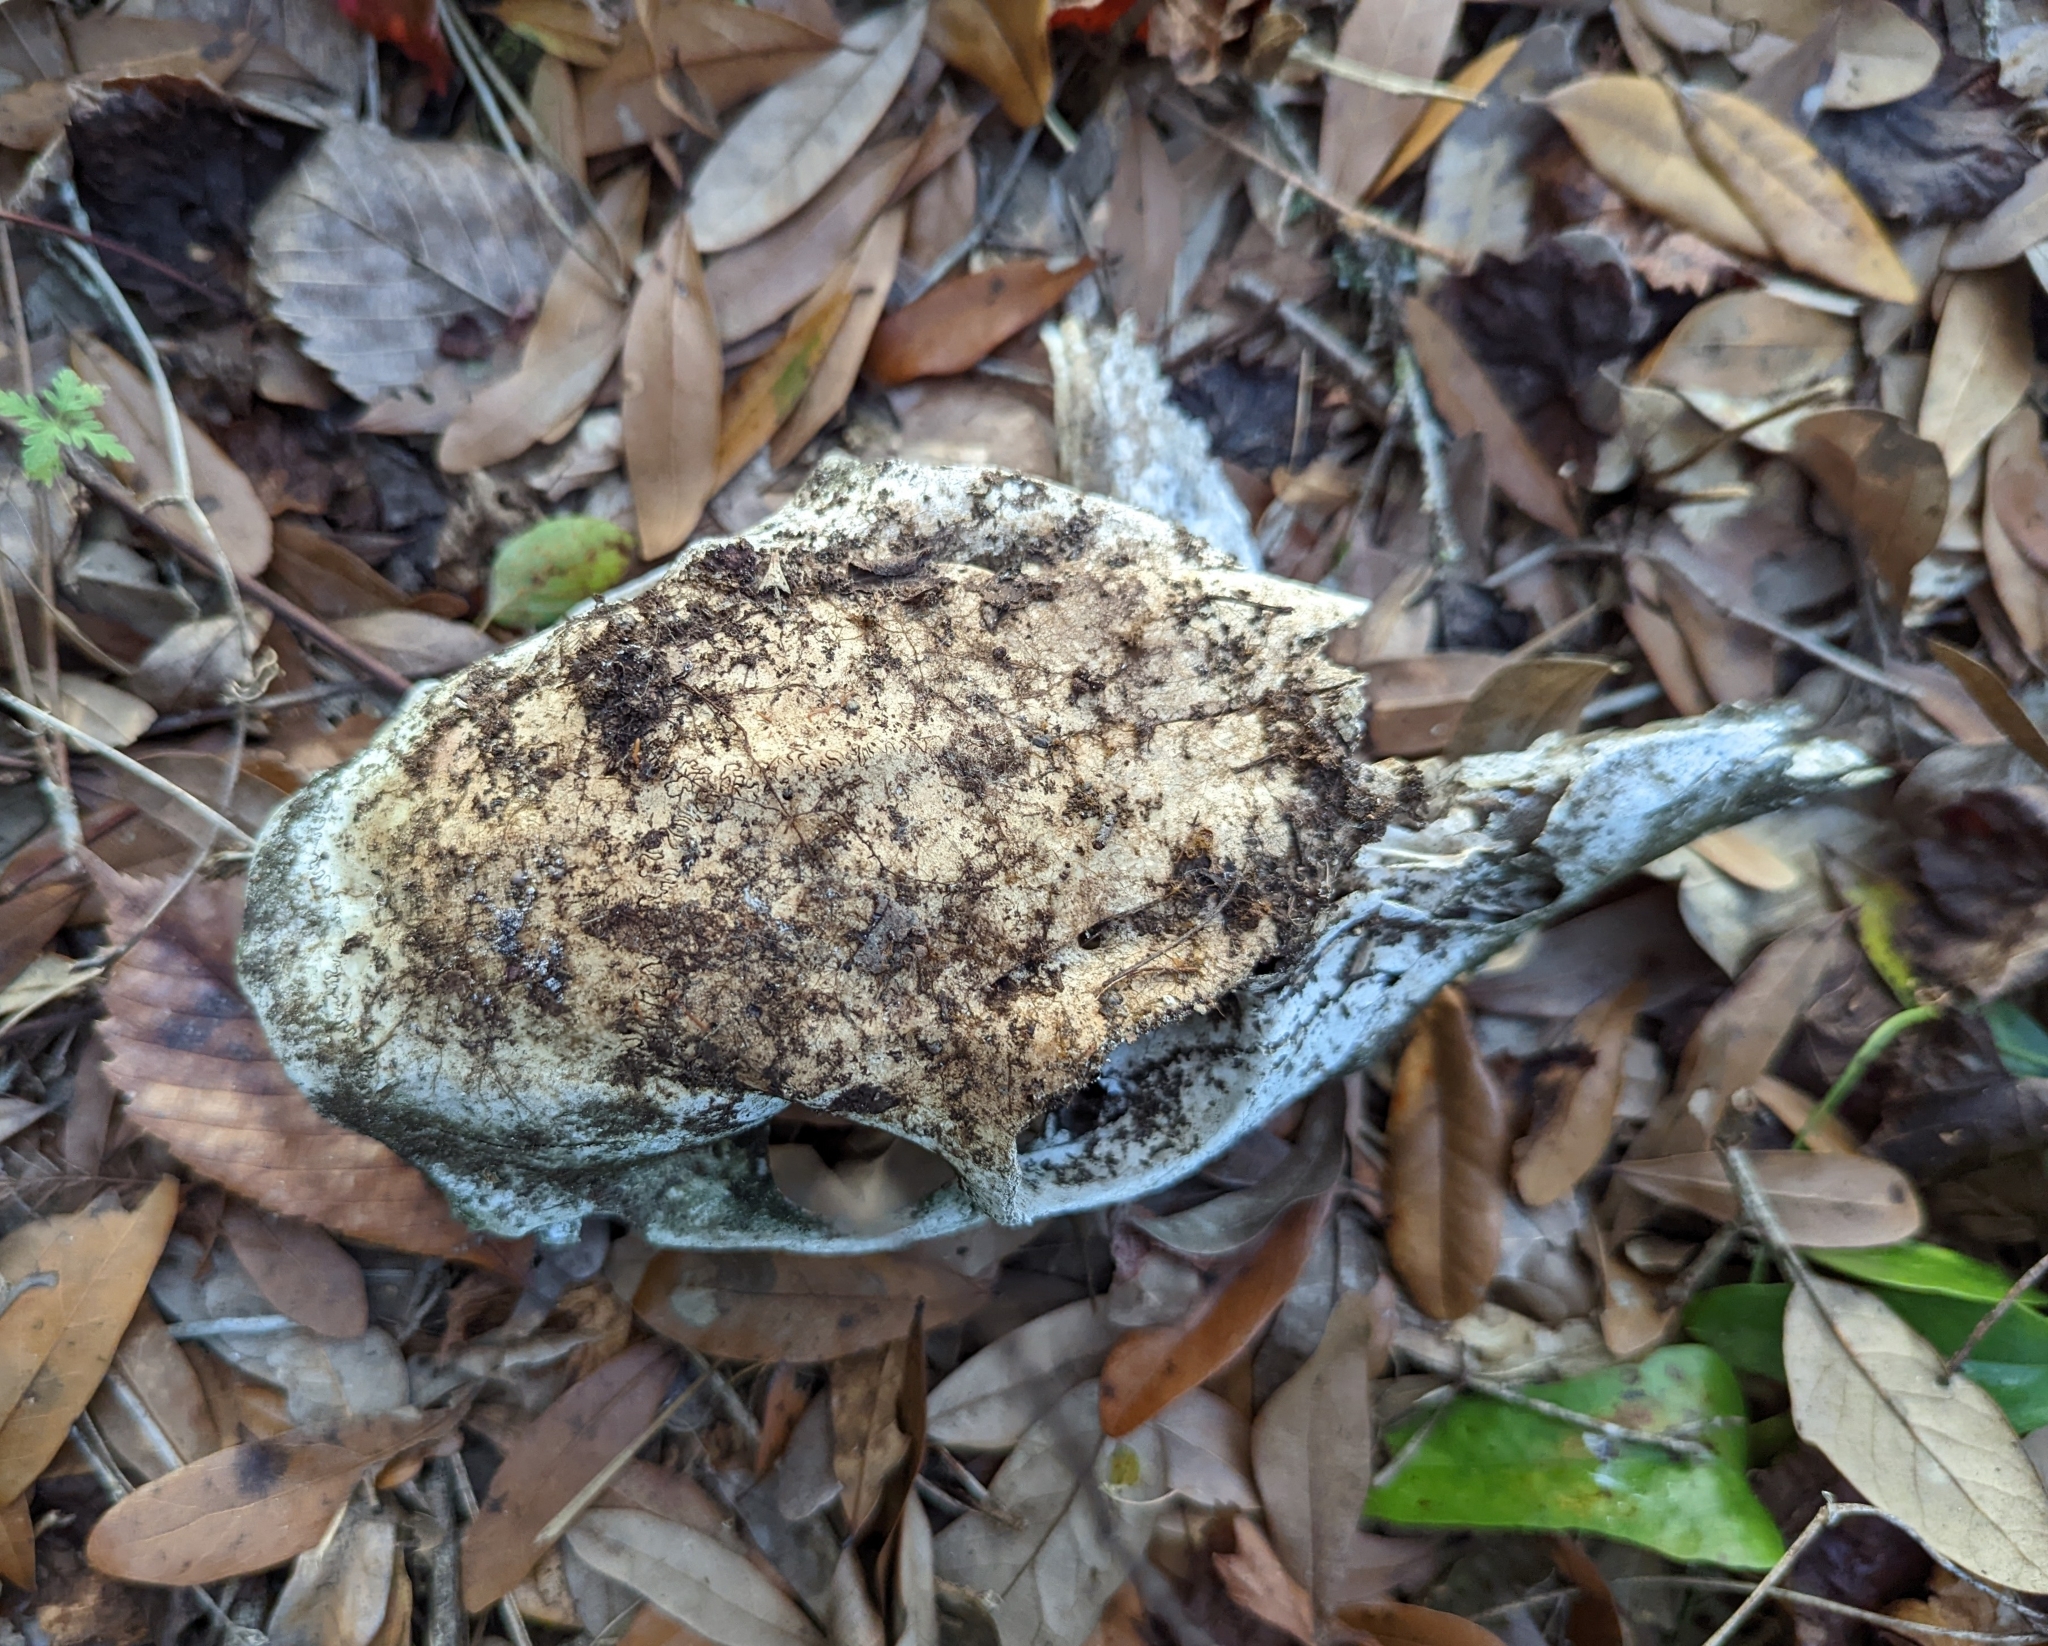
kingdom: Animalia
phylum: Chordata
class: Mammalia
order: Artiodactyla
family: Cervidae
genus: Odocoileus
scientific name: Odocoileus virginianus
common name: White-tailed deer
